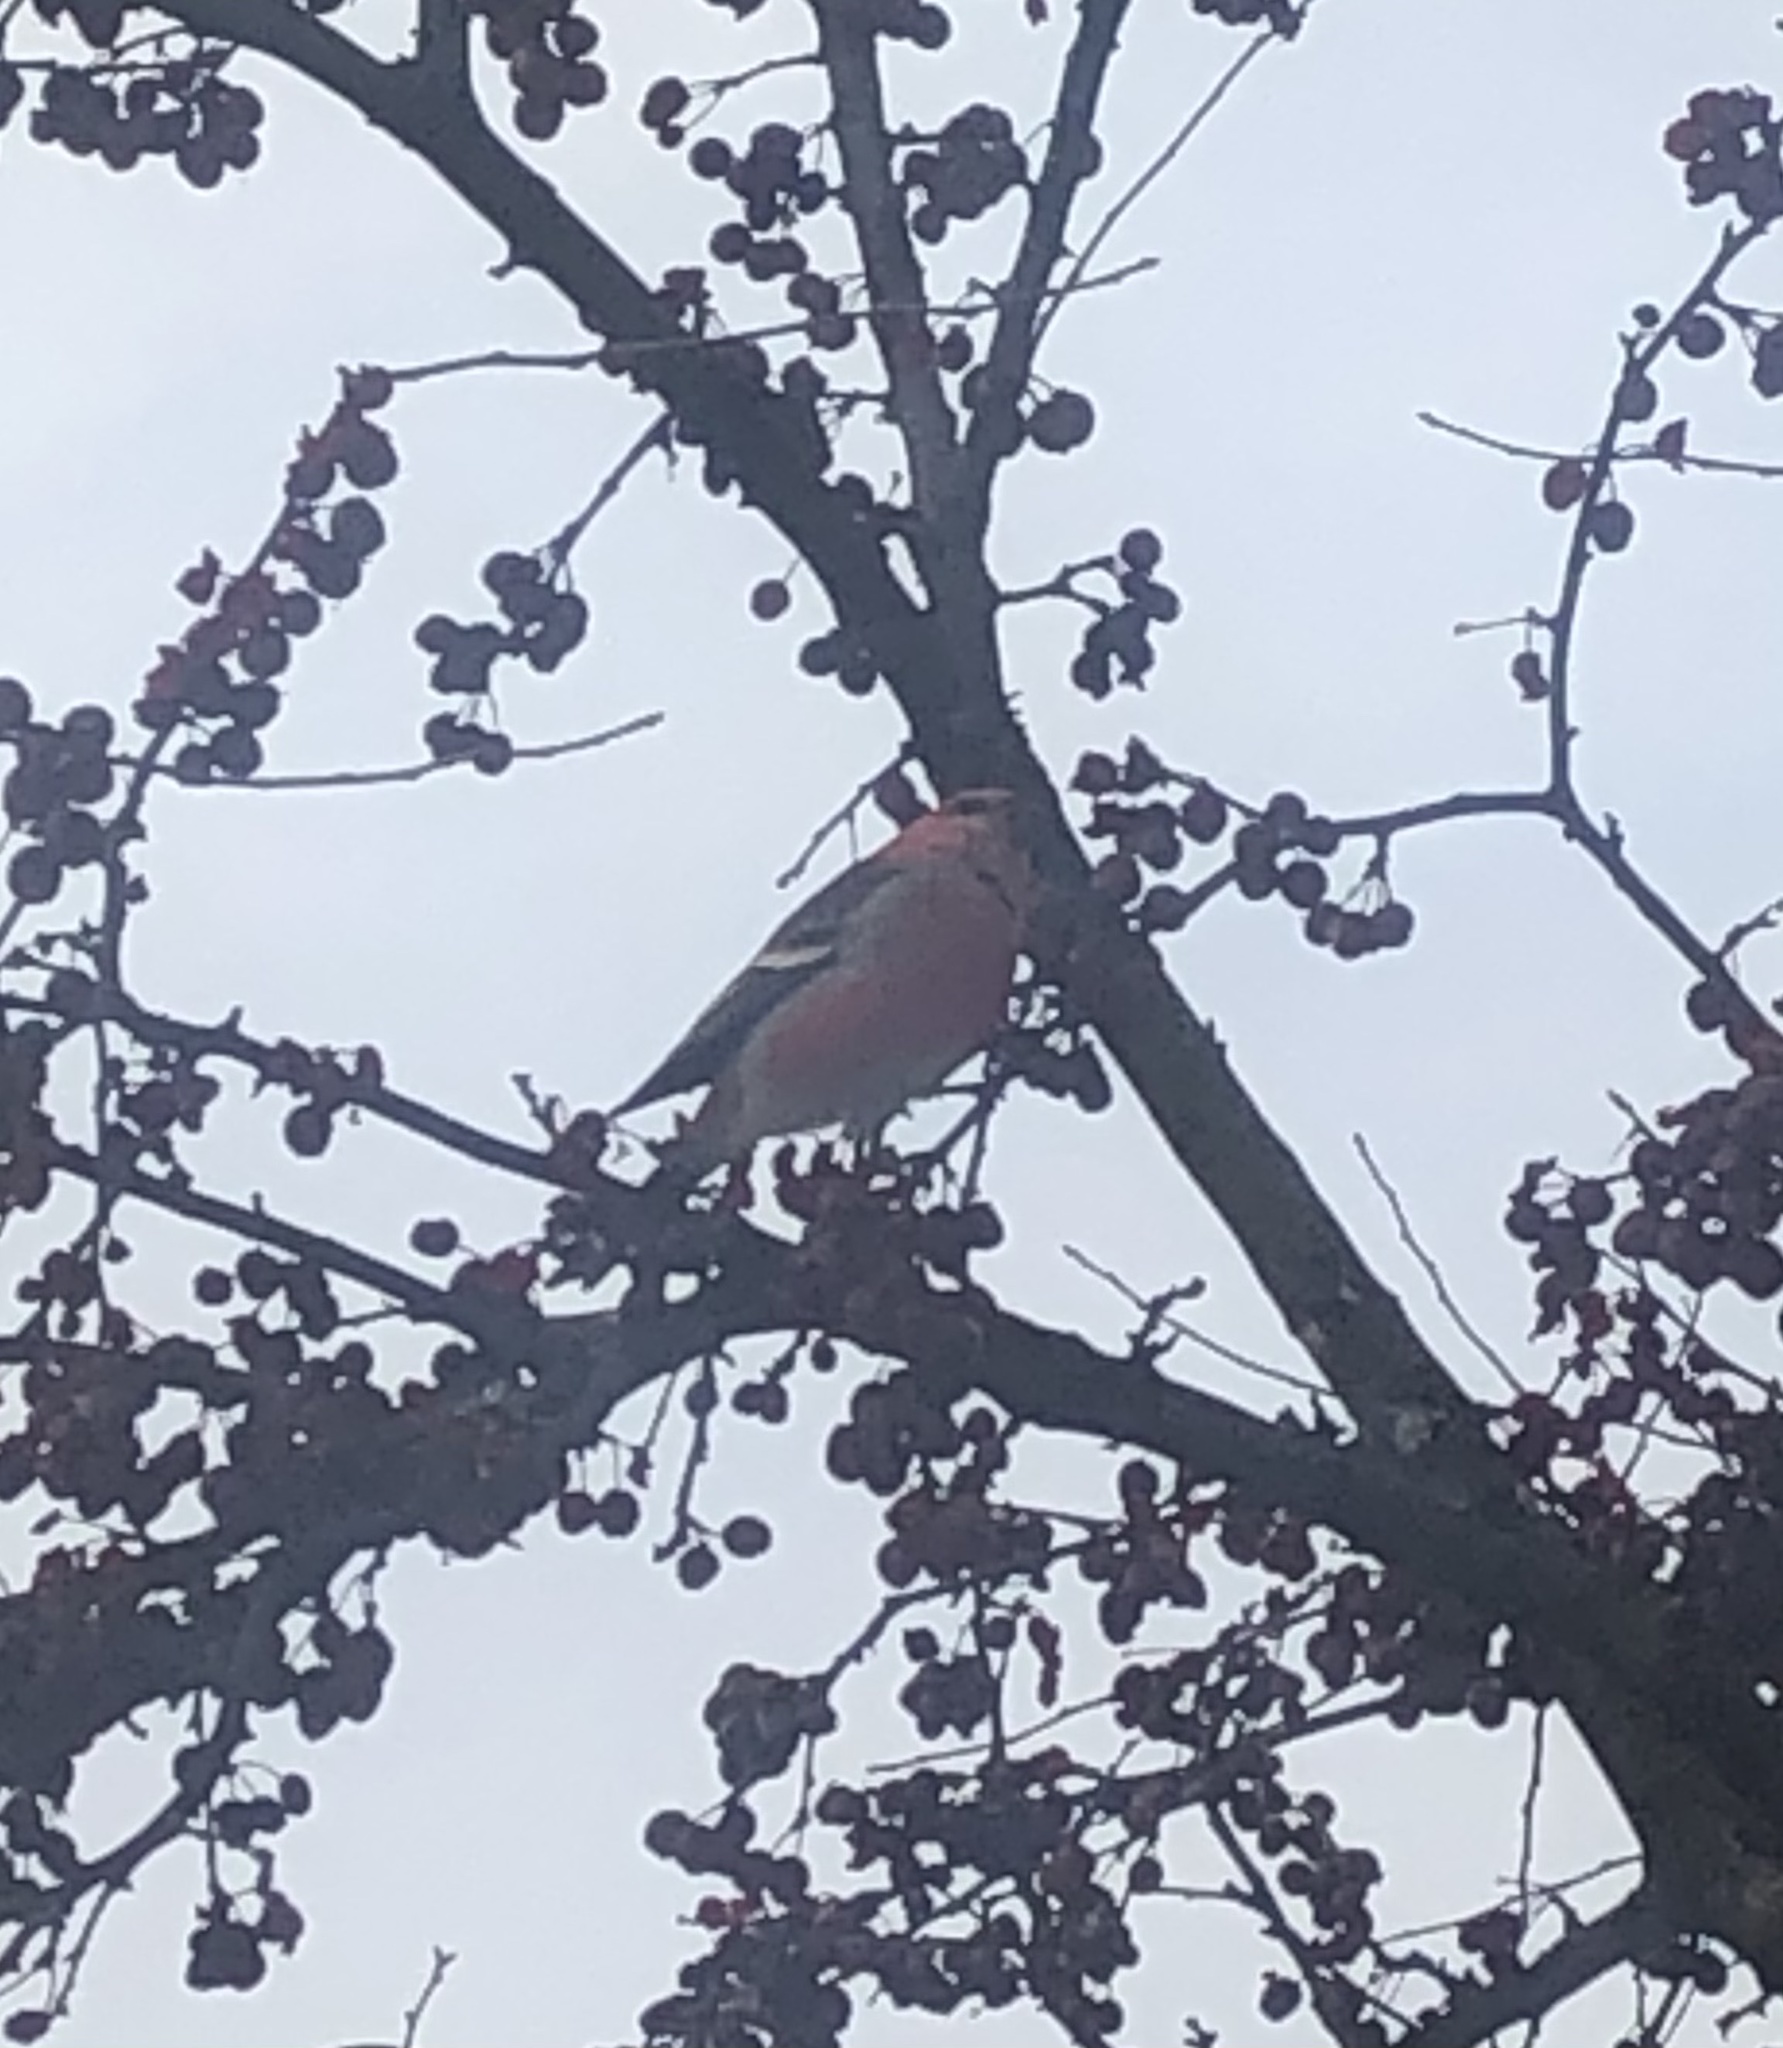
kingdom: Animalia
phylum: Chordata
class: Aves
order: Passeriformes
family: Fringillidae
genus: Pinicola
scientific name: Pinicola enucleator
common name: Pine grosbeak
